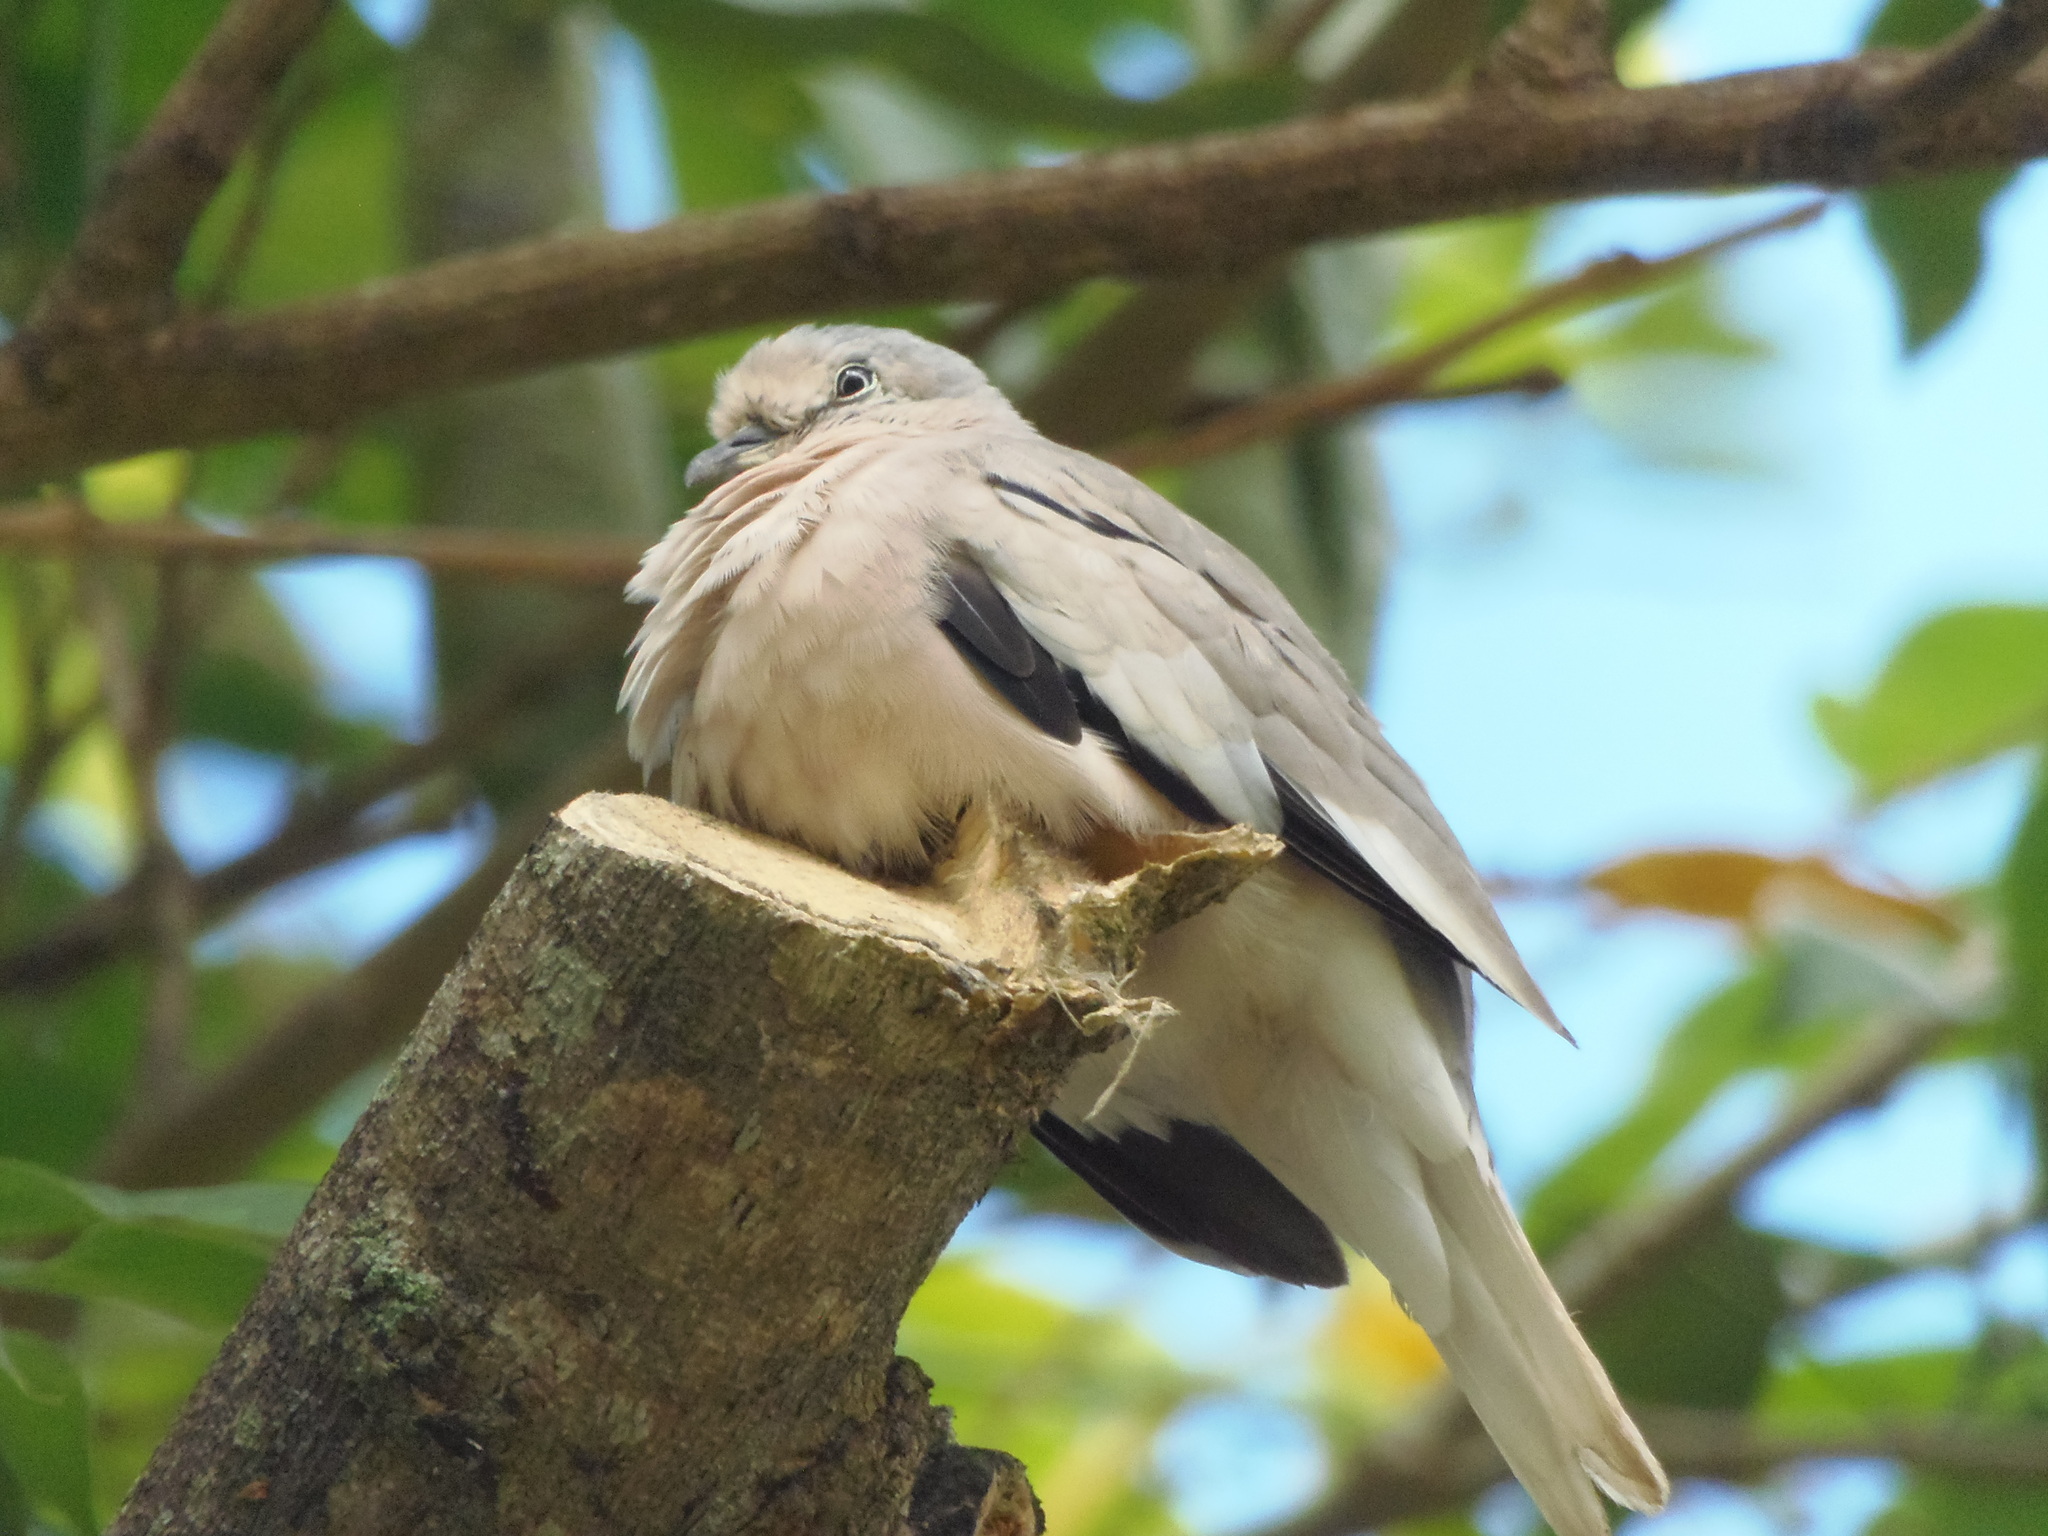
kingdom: Animalia
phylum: Chordata
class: Aves
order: Columbiformes
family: Columbidae
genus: Columbina
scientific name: Columbina picui
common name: Picui ground dove
